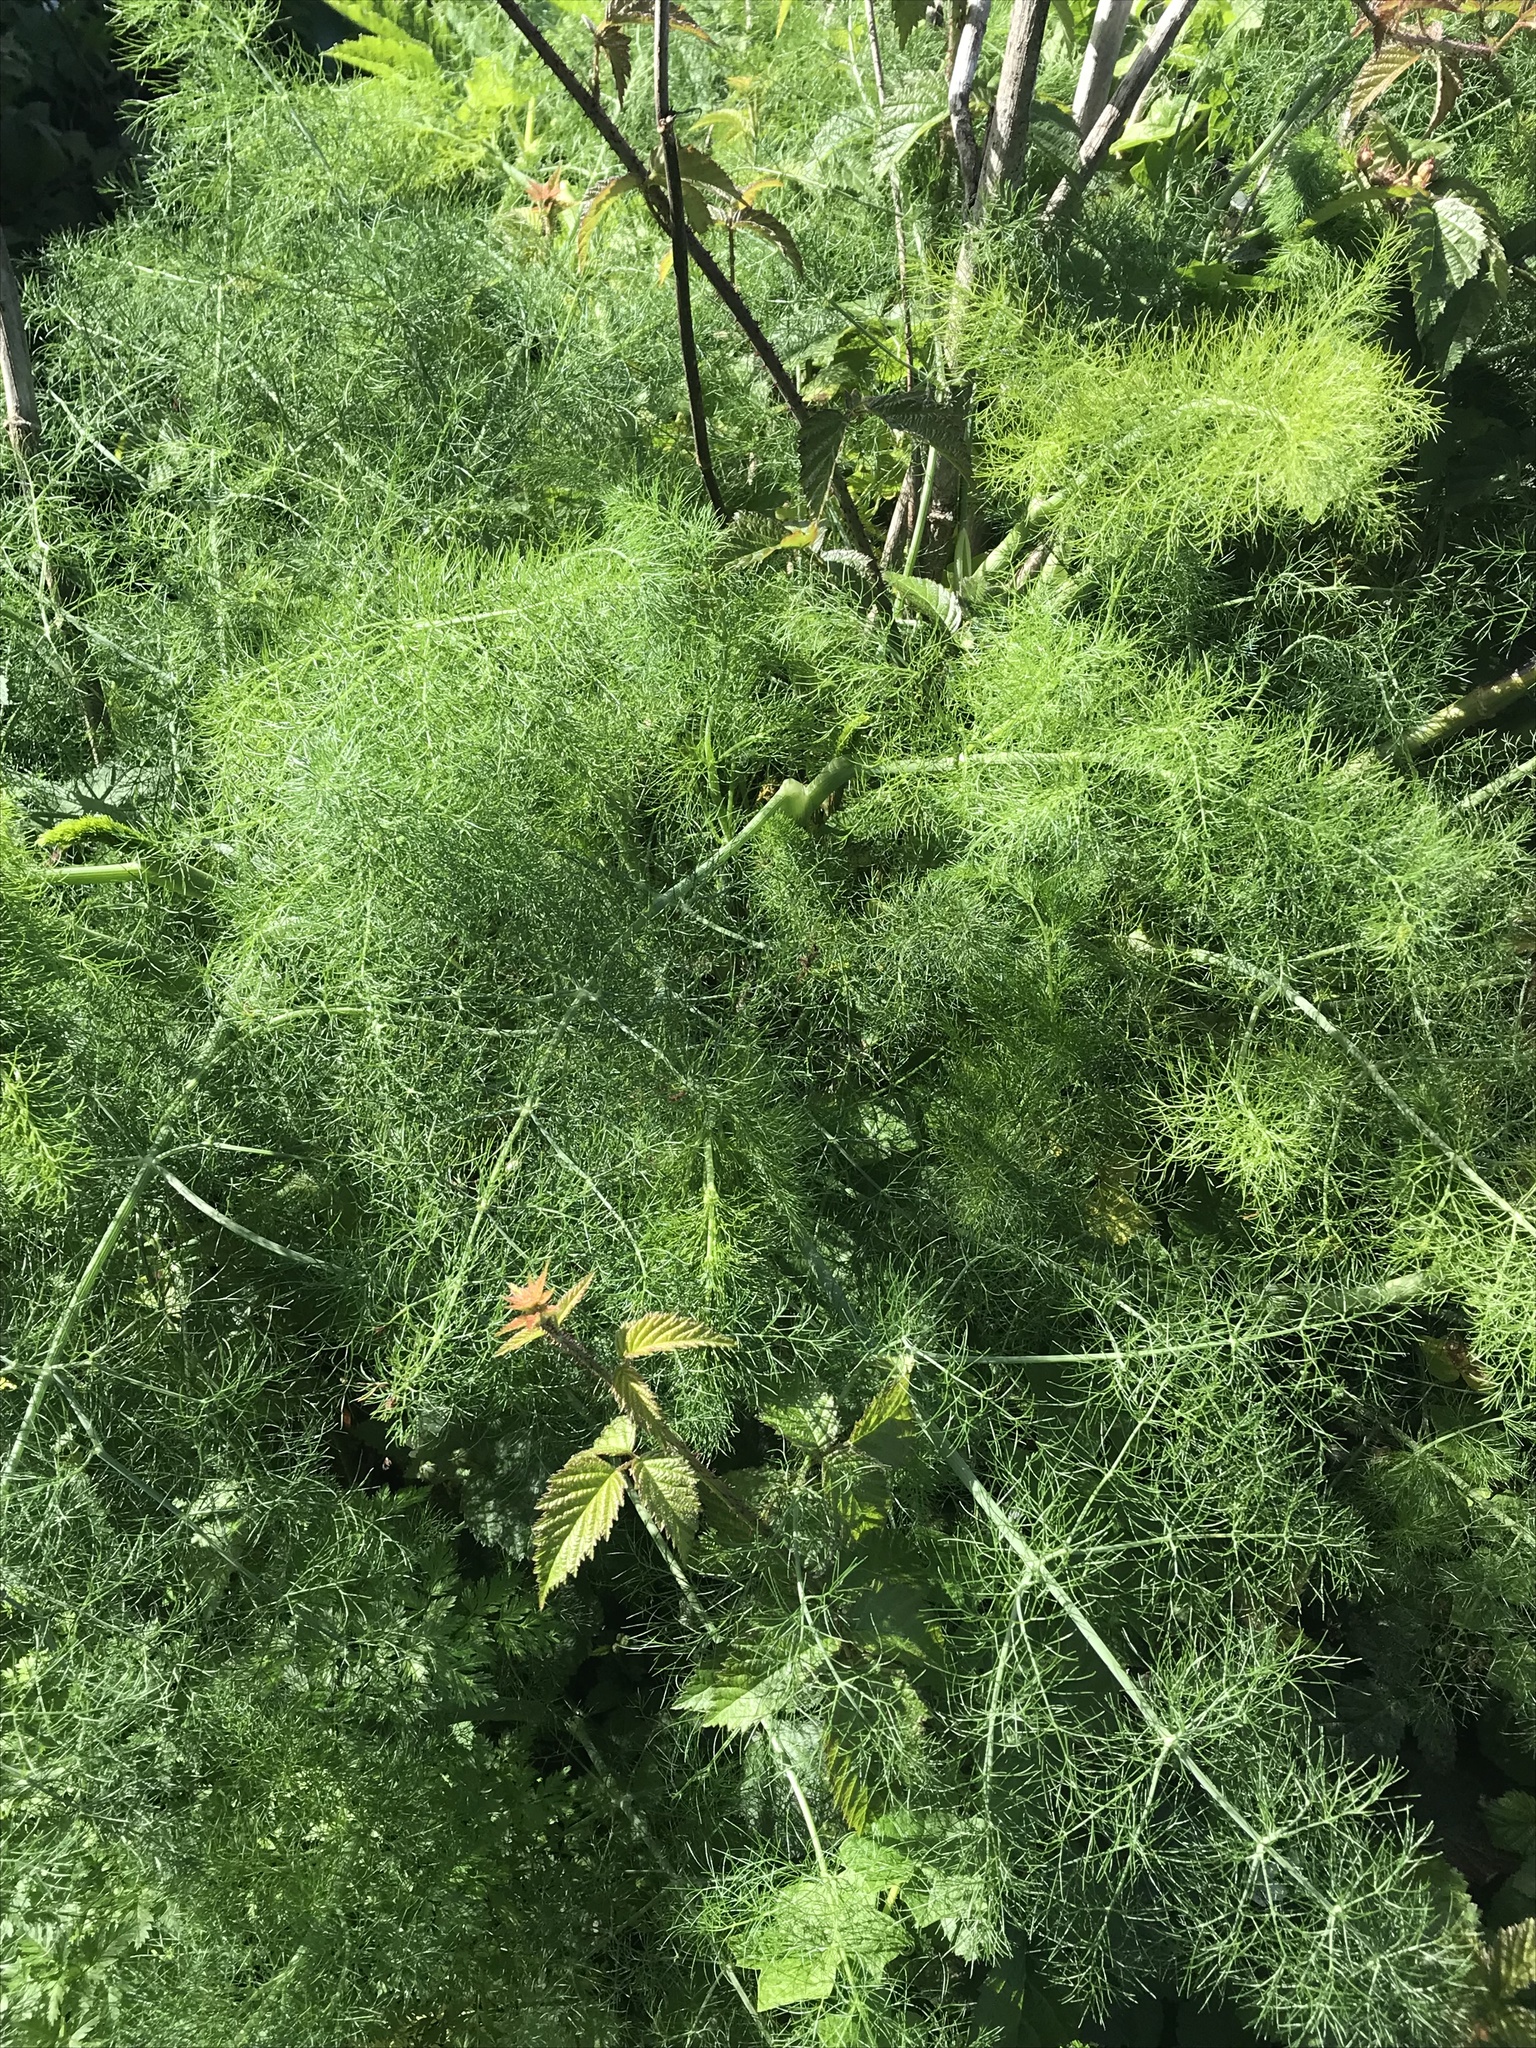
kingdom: Plantae
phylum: Tracheophyta
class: Magnoliopsida
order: Apiales
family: Apiaceae
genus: Foeniculum
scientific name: Foeniculum vulgare
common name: Fennel
